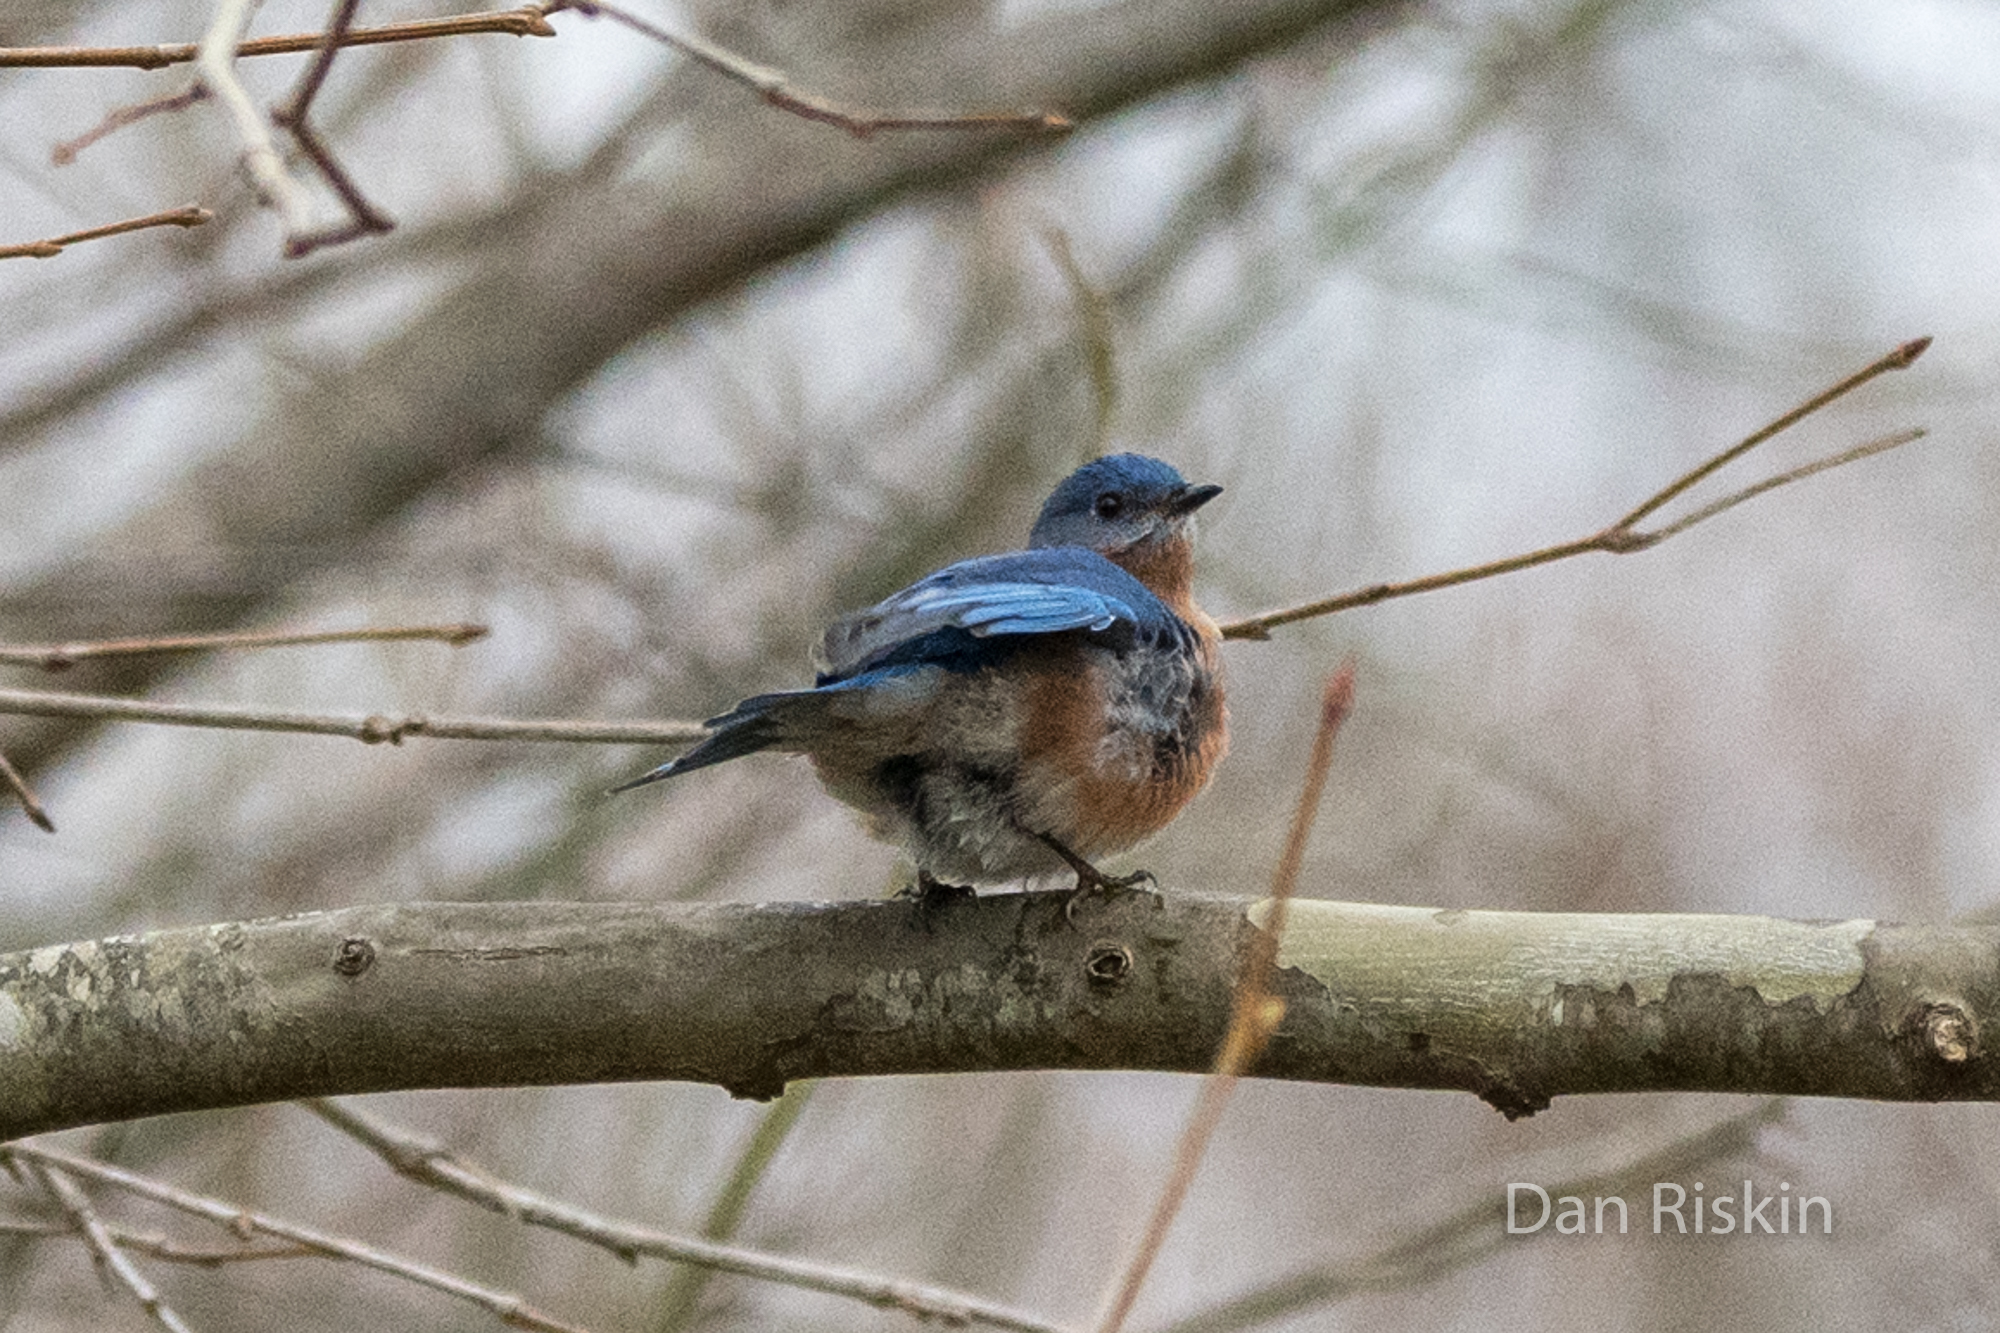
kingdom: Animalia
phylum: Chordata
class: Aves
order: Passeriformes
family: Turdidae
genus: Sialia
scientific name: Sialia sialis
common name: Eastern bluebird
